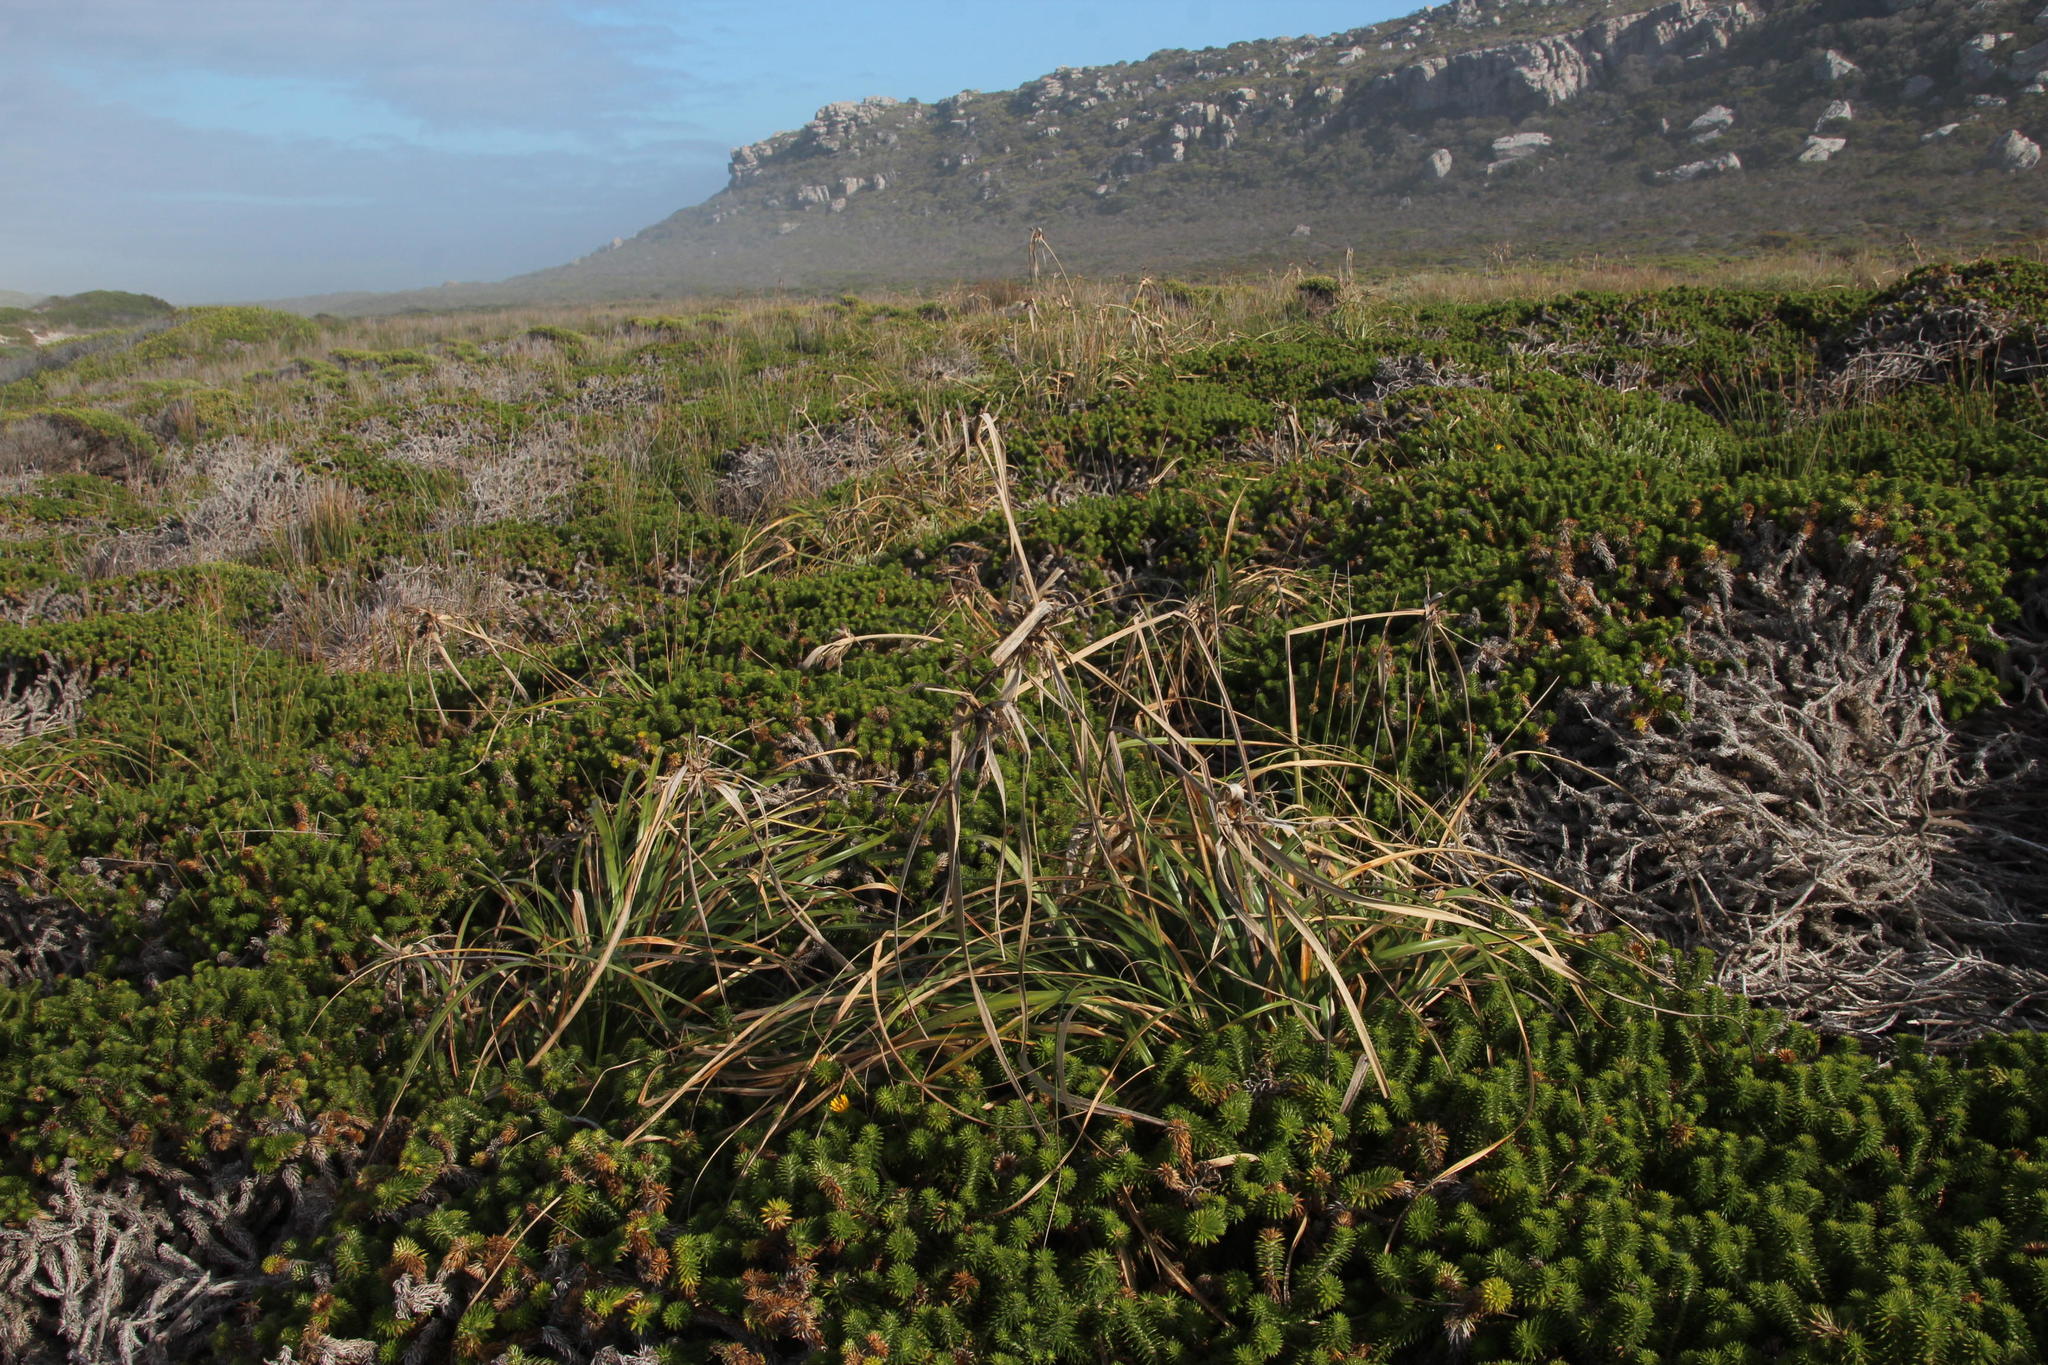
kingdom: Plantae
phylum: Tracheophyta
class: Magnoliopsida
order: Asterales
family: Asteraceae
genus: Cullumia
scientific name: Cullumia squarrosa
